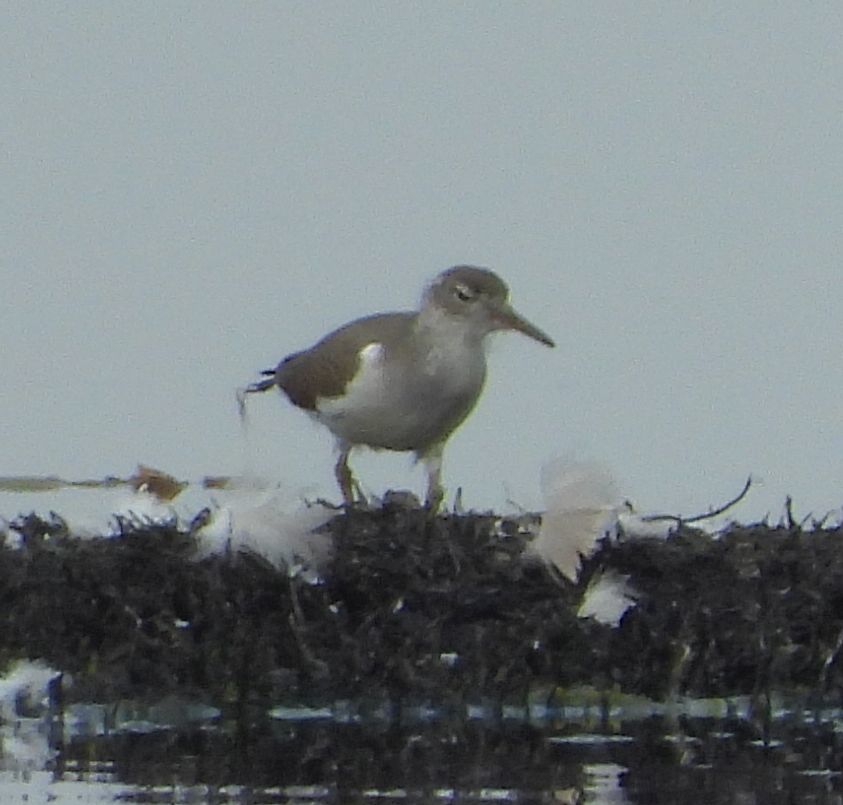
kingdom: Animalia
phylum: Chordata
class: Aves
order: Charadriiformes
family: Scolopacidae
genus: Actitis
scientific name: Actitis macularius
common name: Spotted sandpiper
